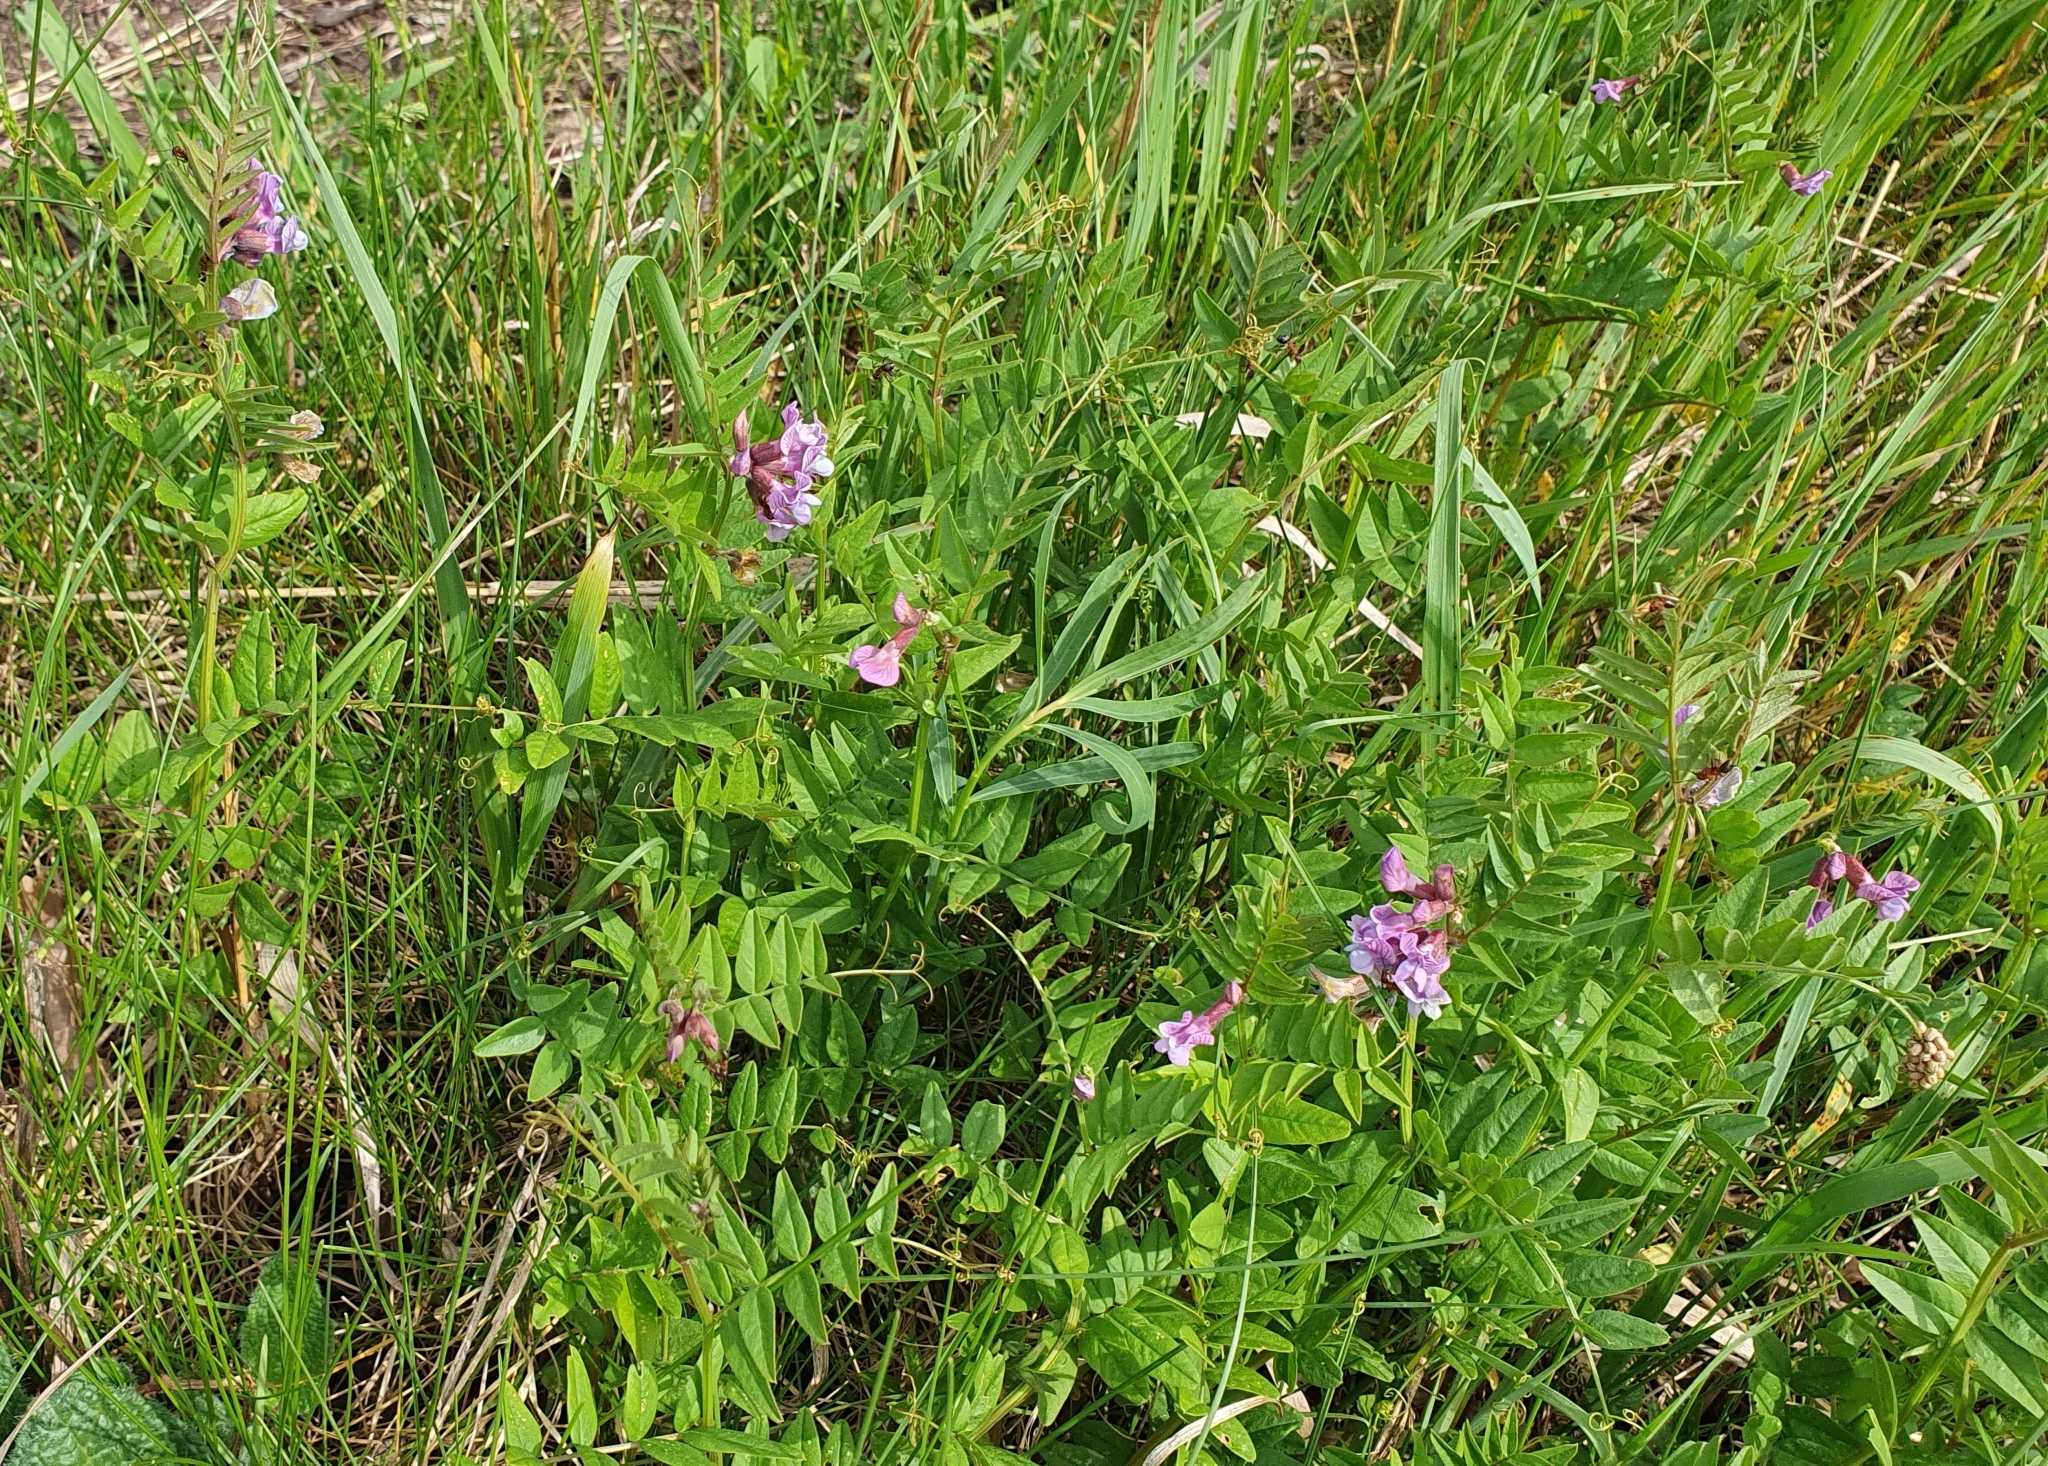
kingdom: Plantae
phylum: Tracheophyta
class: Magnoliopsida
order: Fabales
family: Fabaceae
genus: Vicia
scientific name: Vicia sepium
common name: Bush vetch
